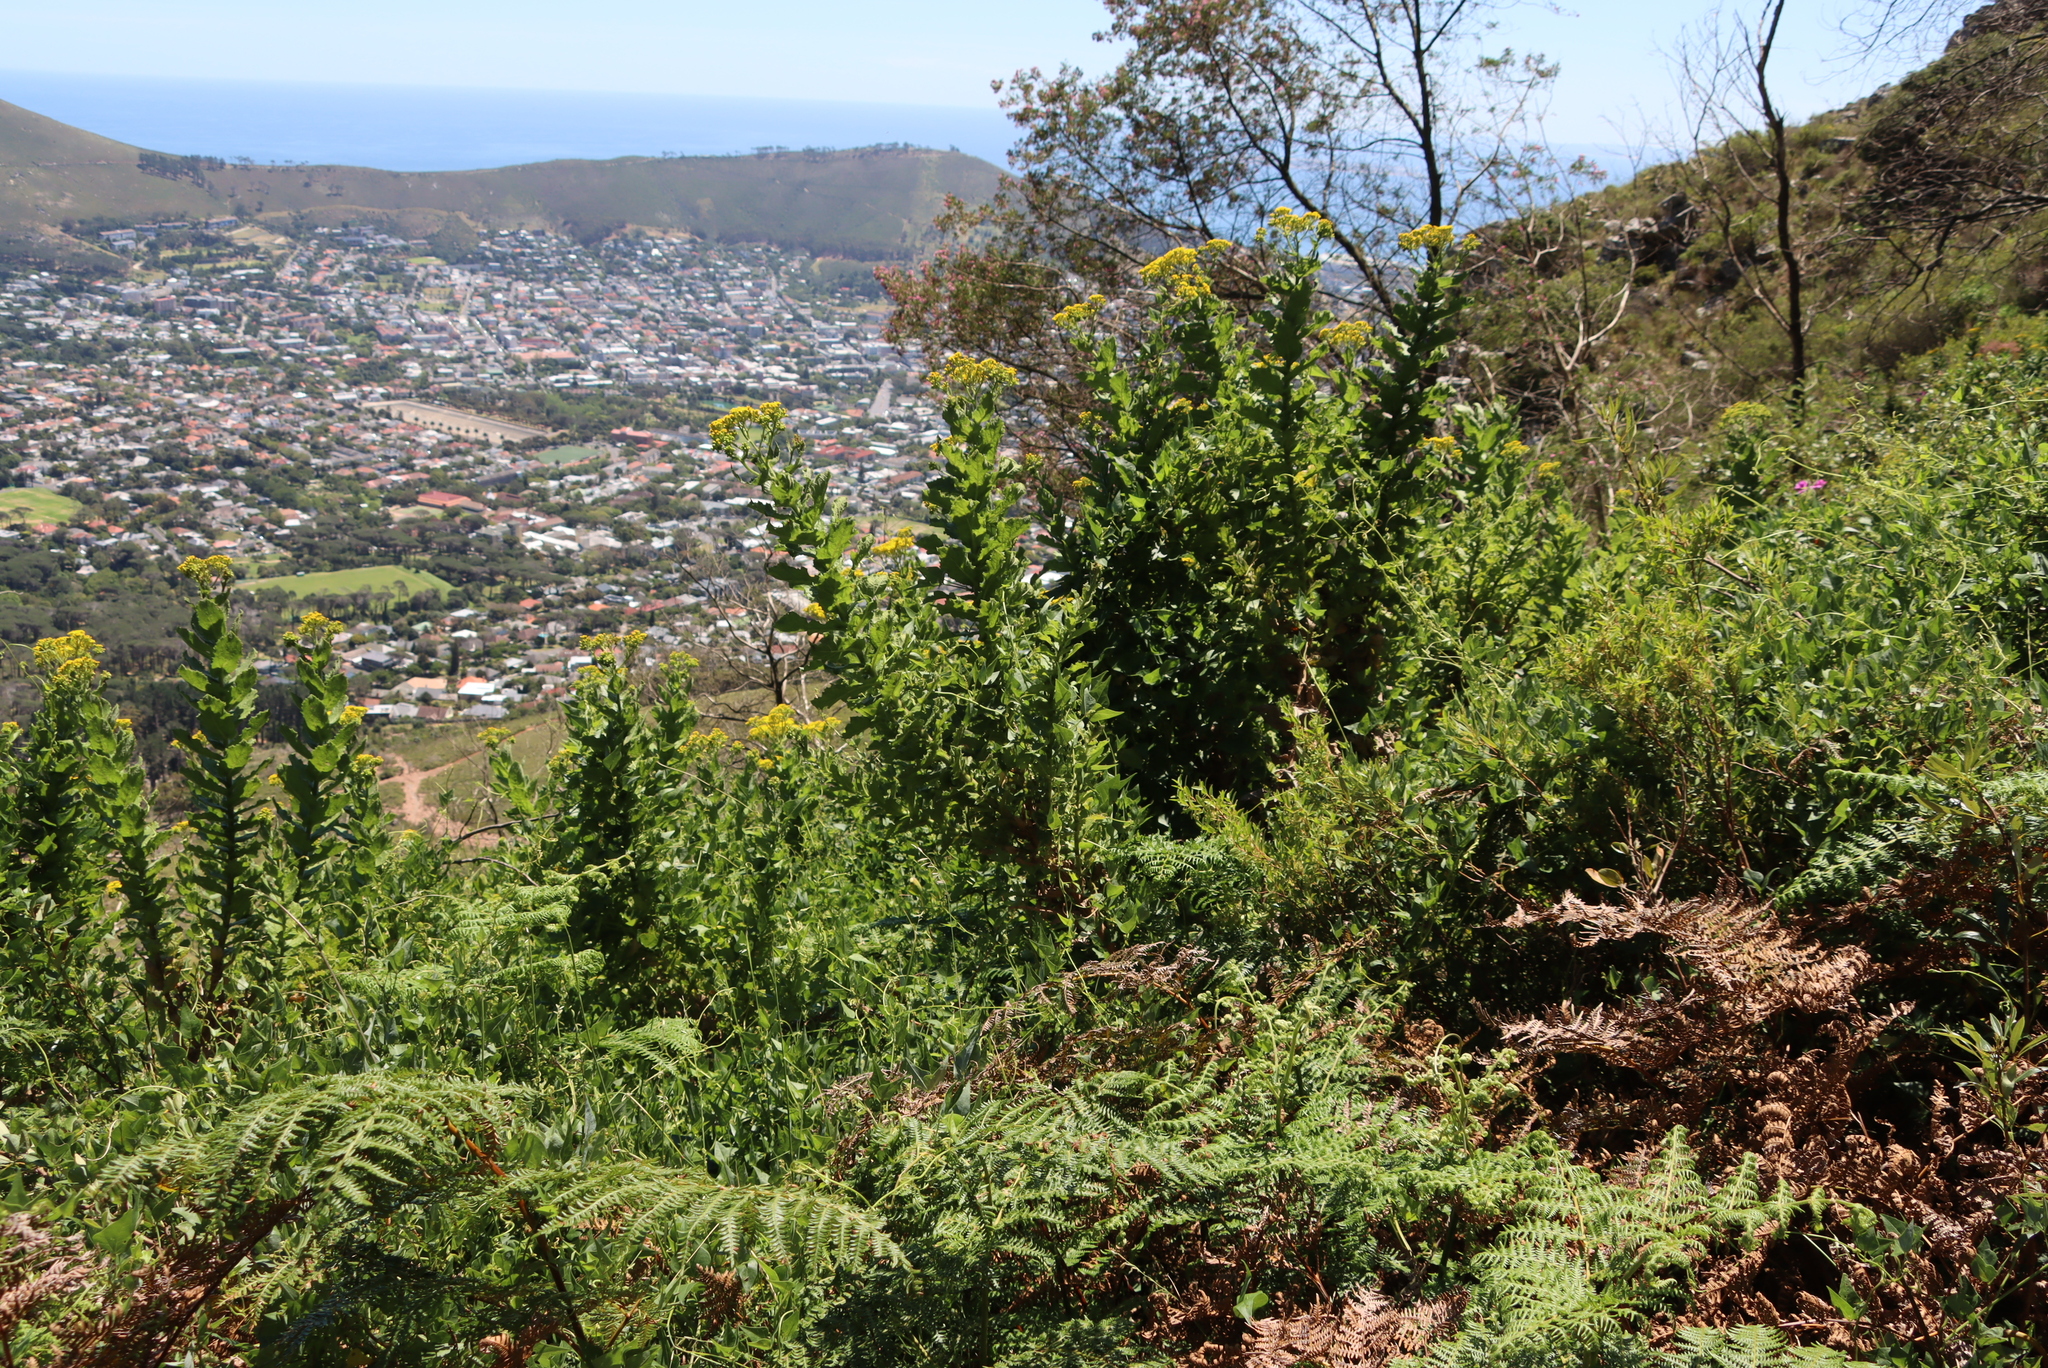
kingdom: Plantae
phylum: Tracheophyta
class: Polypodiopsida
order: Polypodiales
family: Dennstaedtiaceae
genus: Pteridium
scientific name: Pteridium aquilinum
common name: Bracken
